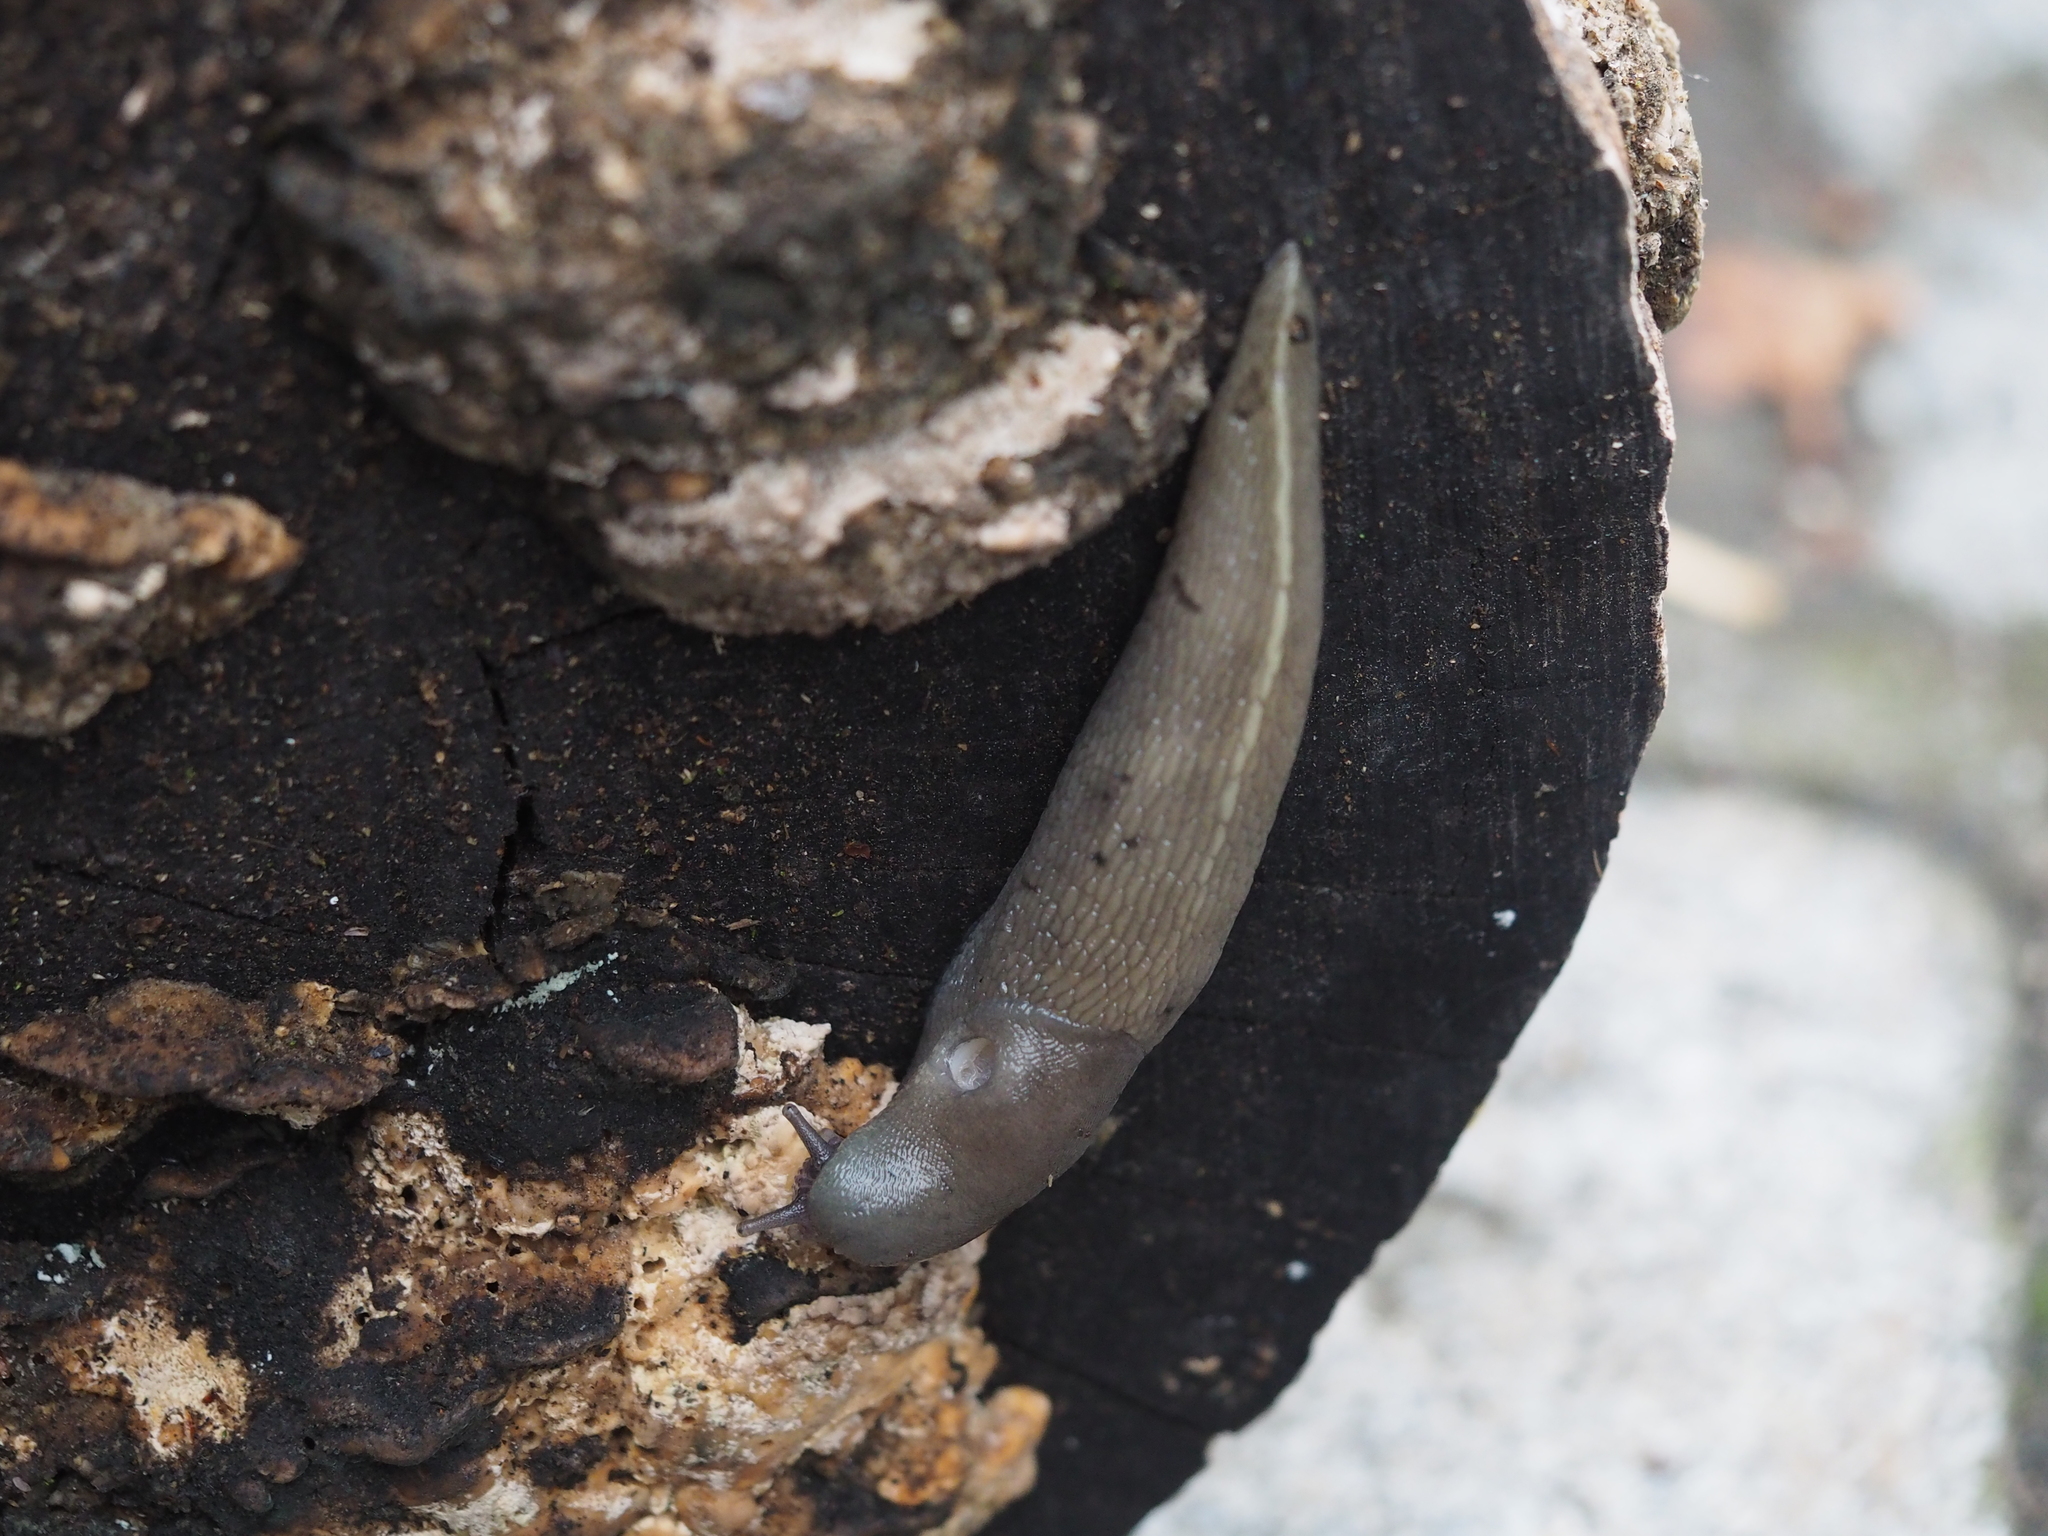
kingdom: Animalia
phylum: Mollusca
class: Gastropoda
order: Stylommatophora
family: Limacidae
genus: Limax
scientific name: Limax cinereoniger
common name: Ash-black slug
